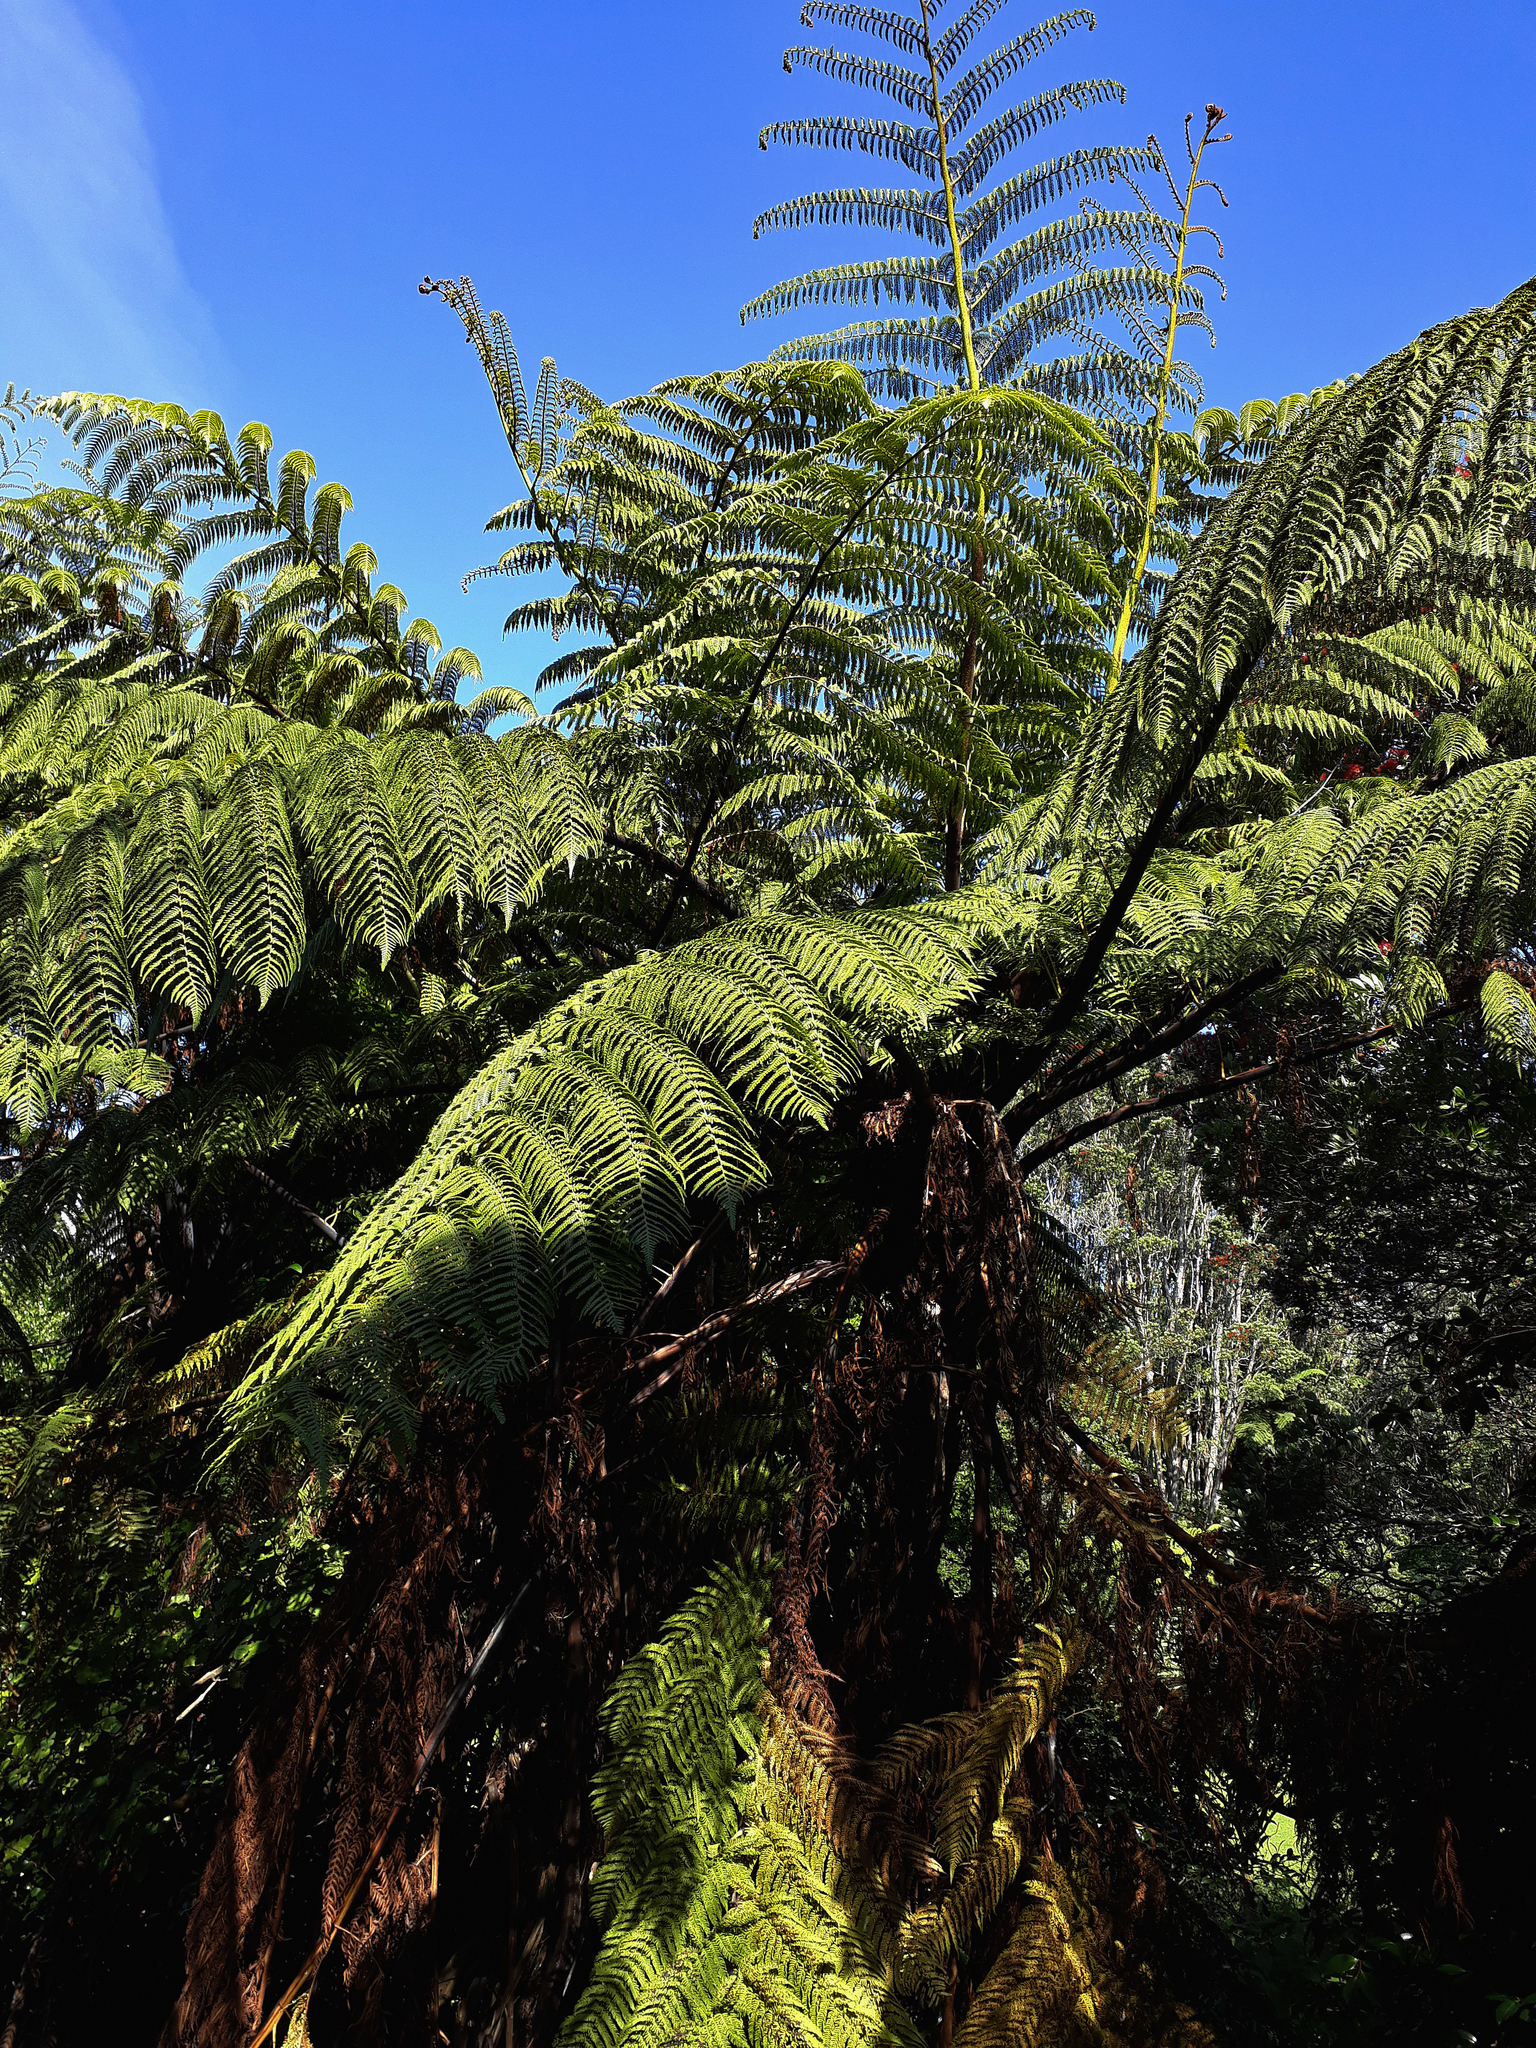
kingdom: Plantae
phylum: Tracheophyta
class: Polypodiopsida
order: Cyatheales
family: Cyatheaceae
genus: Sphaeropteris
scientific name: Sphaeropteris medullaris
